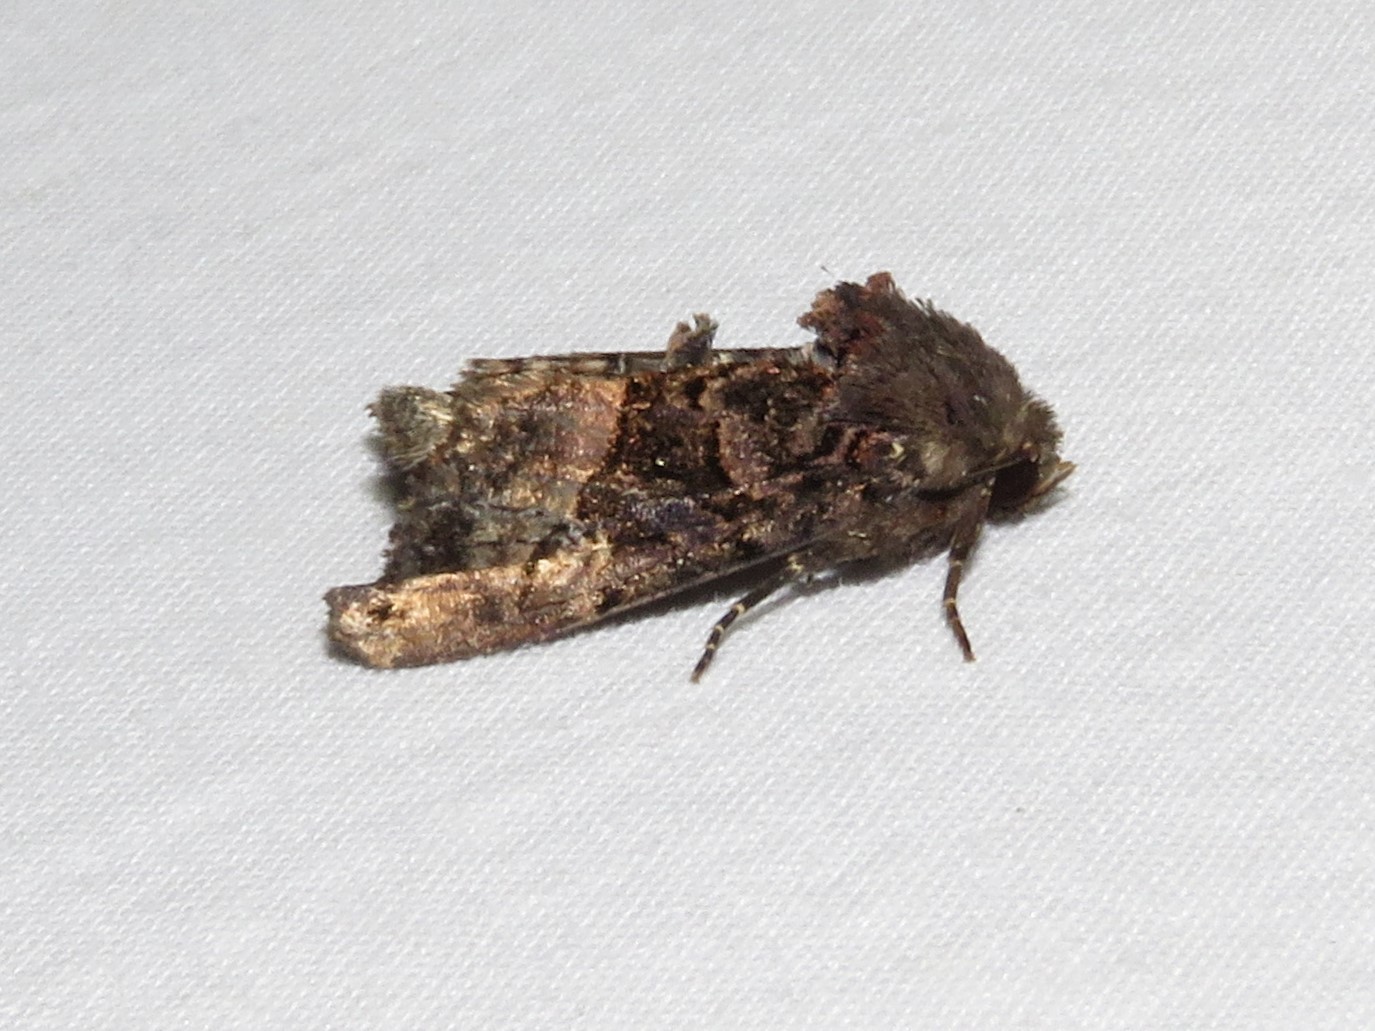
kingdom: Animalia
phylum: Arthropoda
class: Insecta
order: Lepidoptera
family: Noctuidae
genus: Euplexia
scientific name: Euplexia benesimilis
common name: American angle shades
